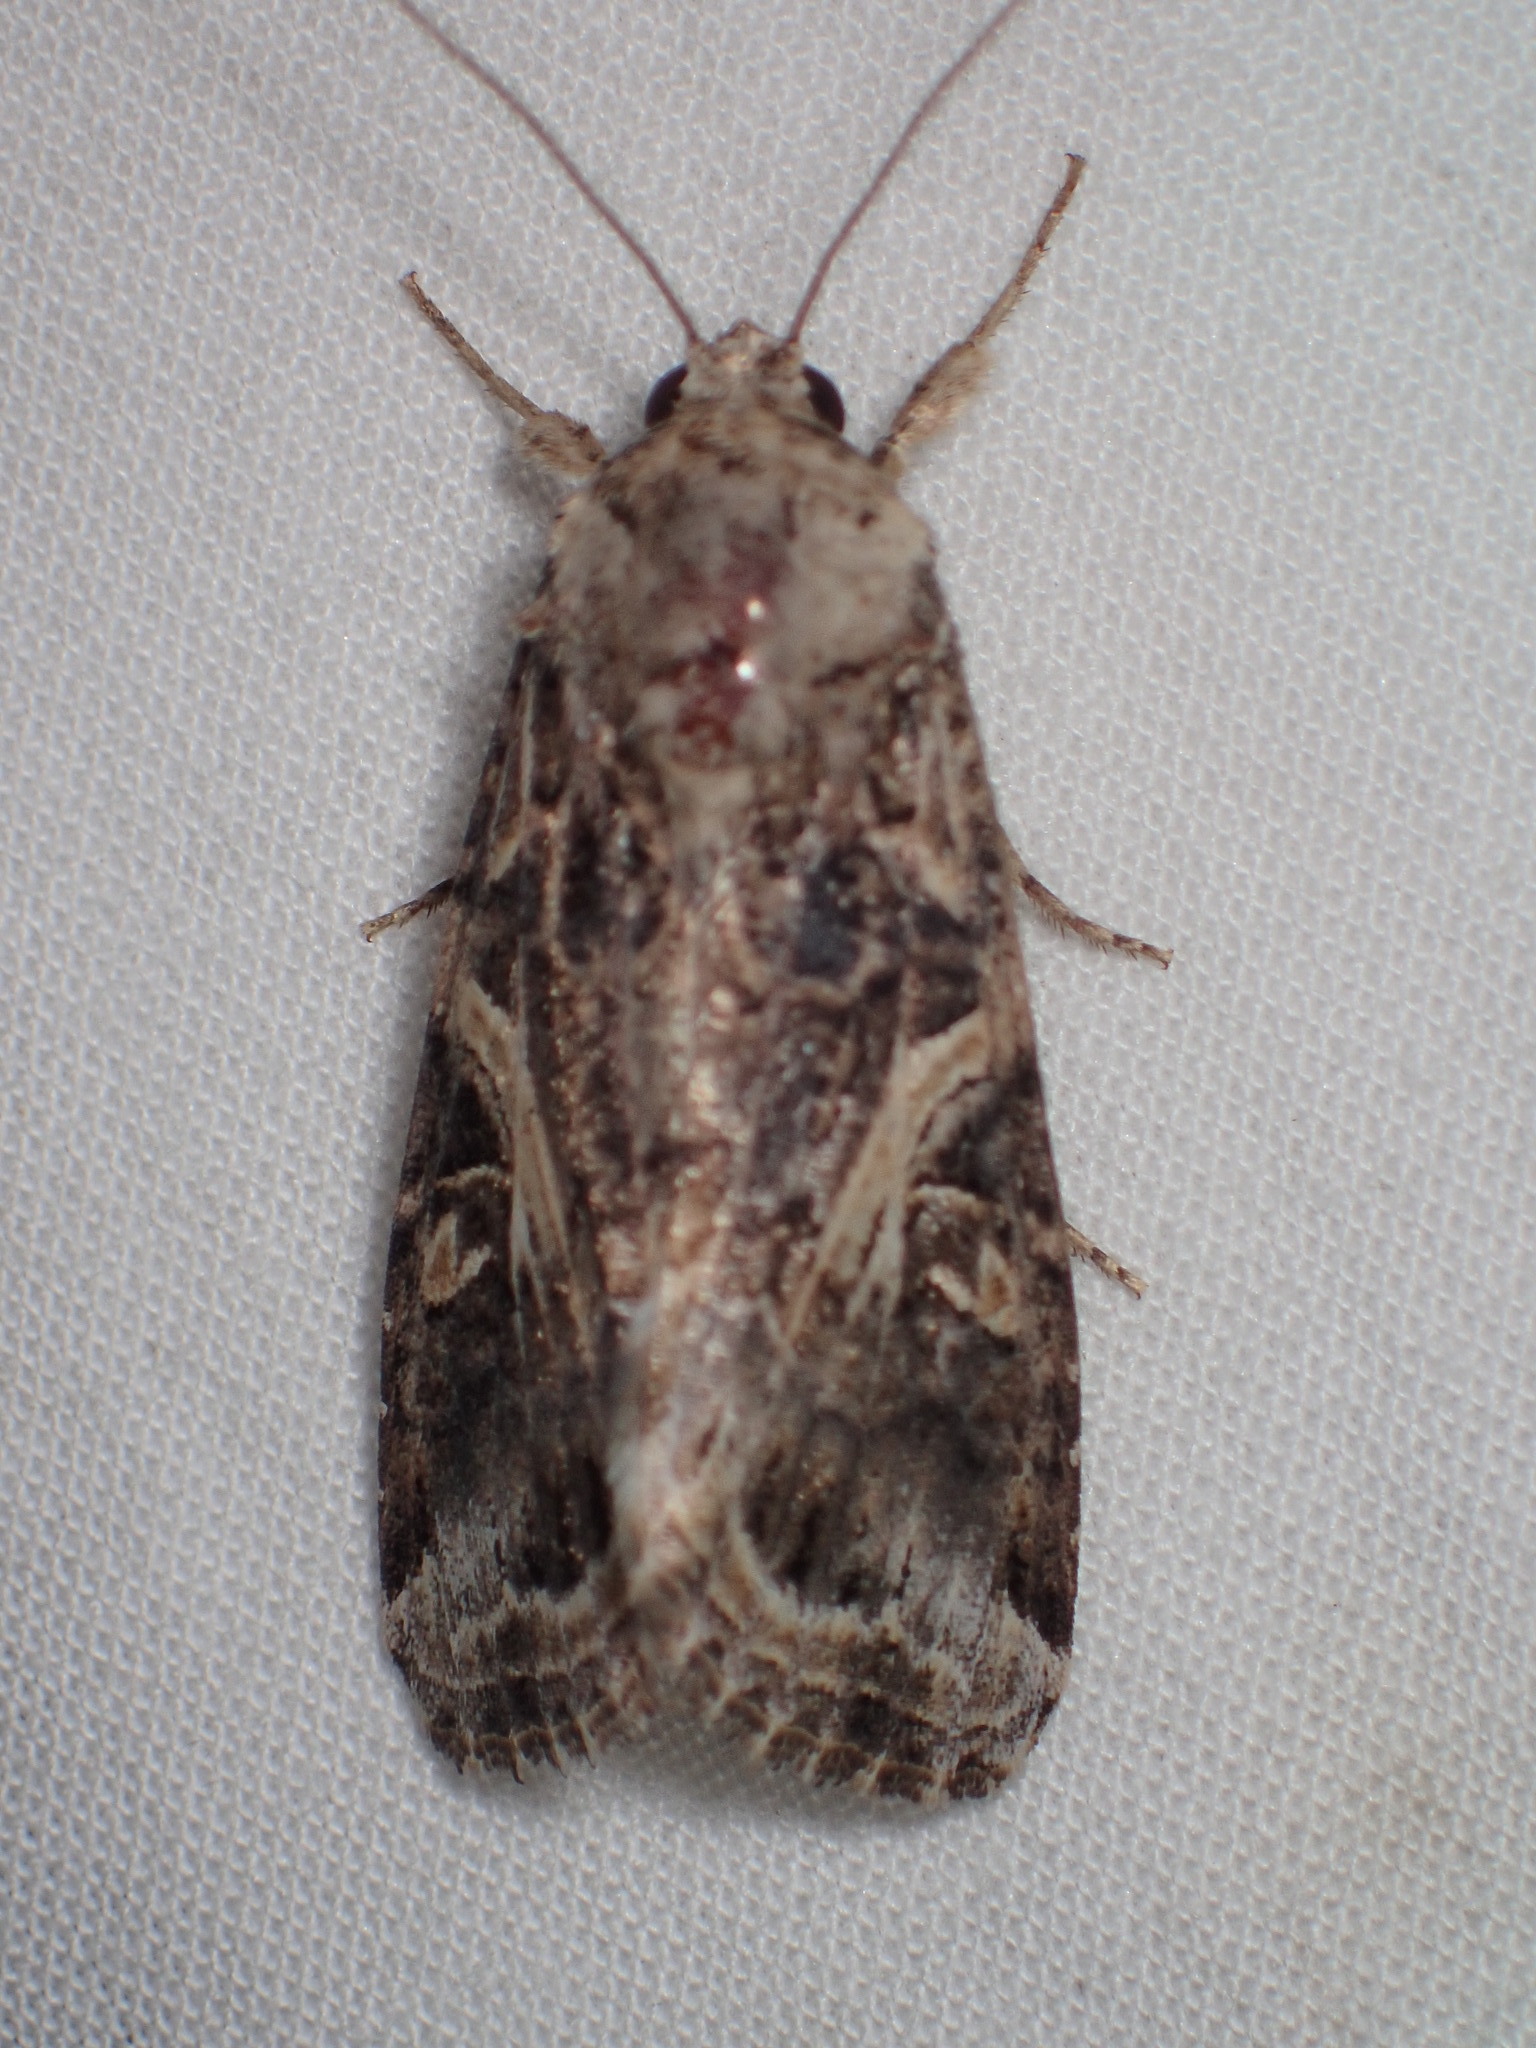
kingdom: Animalia
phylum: Arthropoda
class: Insecta
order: Lepidoptera
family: Noctuidae
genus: Spodoptera
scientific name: Spodoptera ornithogalli
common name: Yellow-striped armyworm
